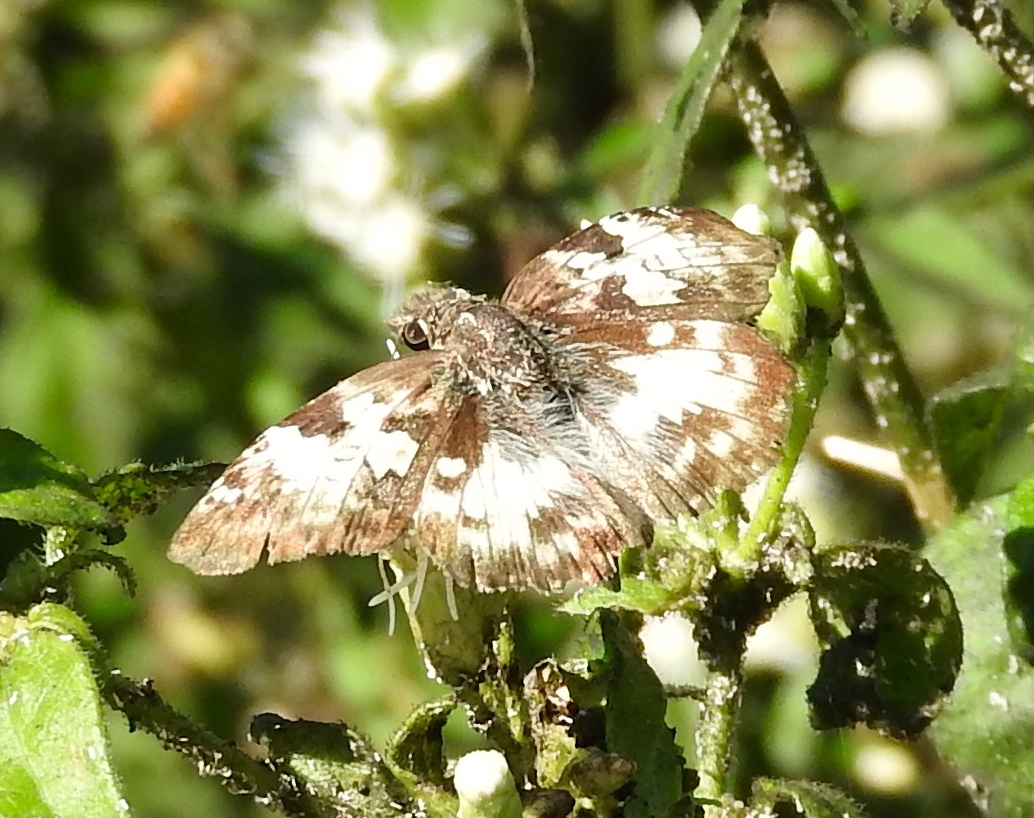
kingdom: Animalia
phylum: Arthropoda
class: Insecta
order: Lepidoptera
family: Hesperiidae
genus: Polyctor
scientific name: Polyctor
